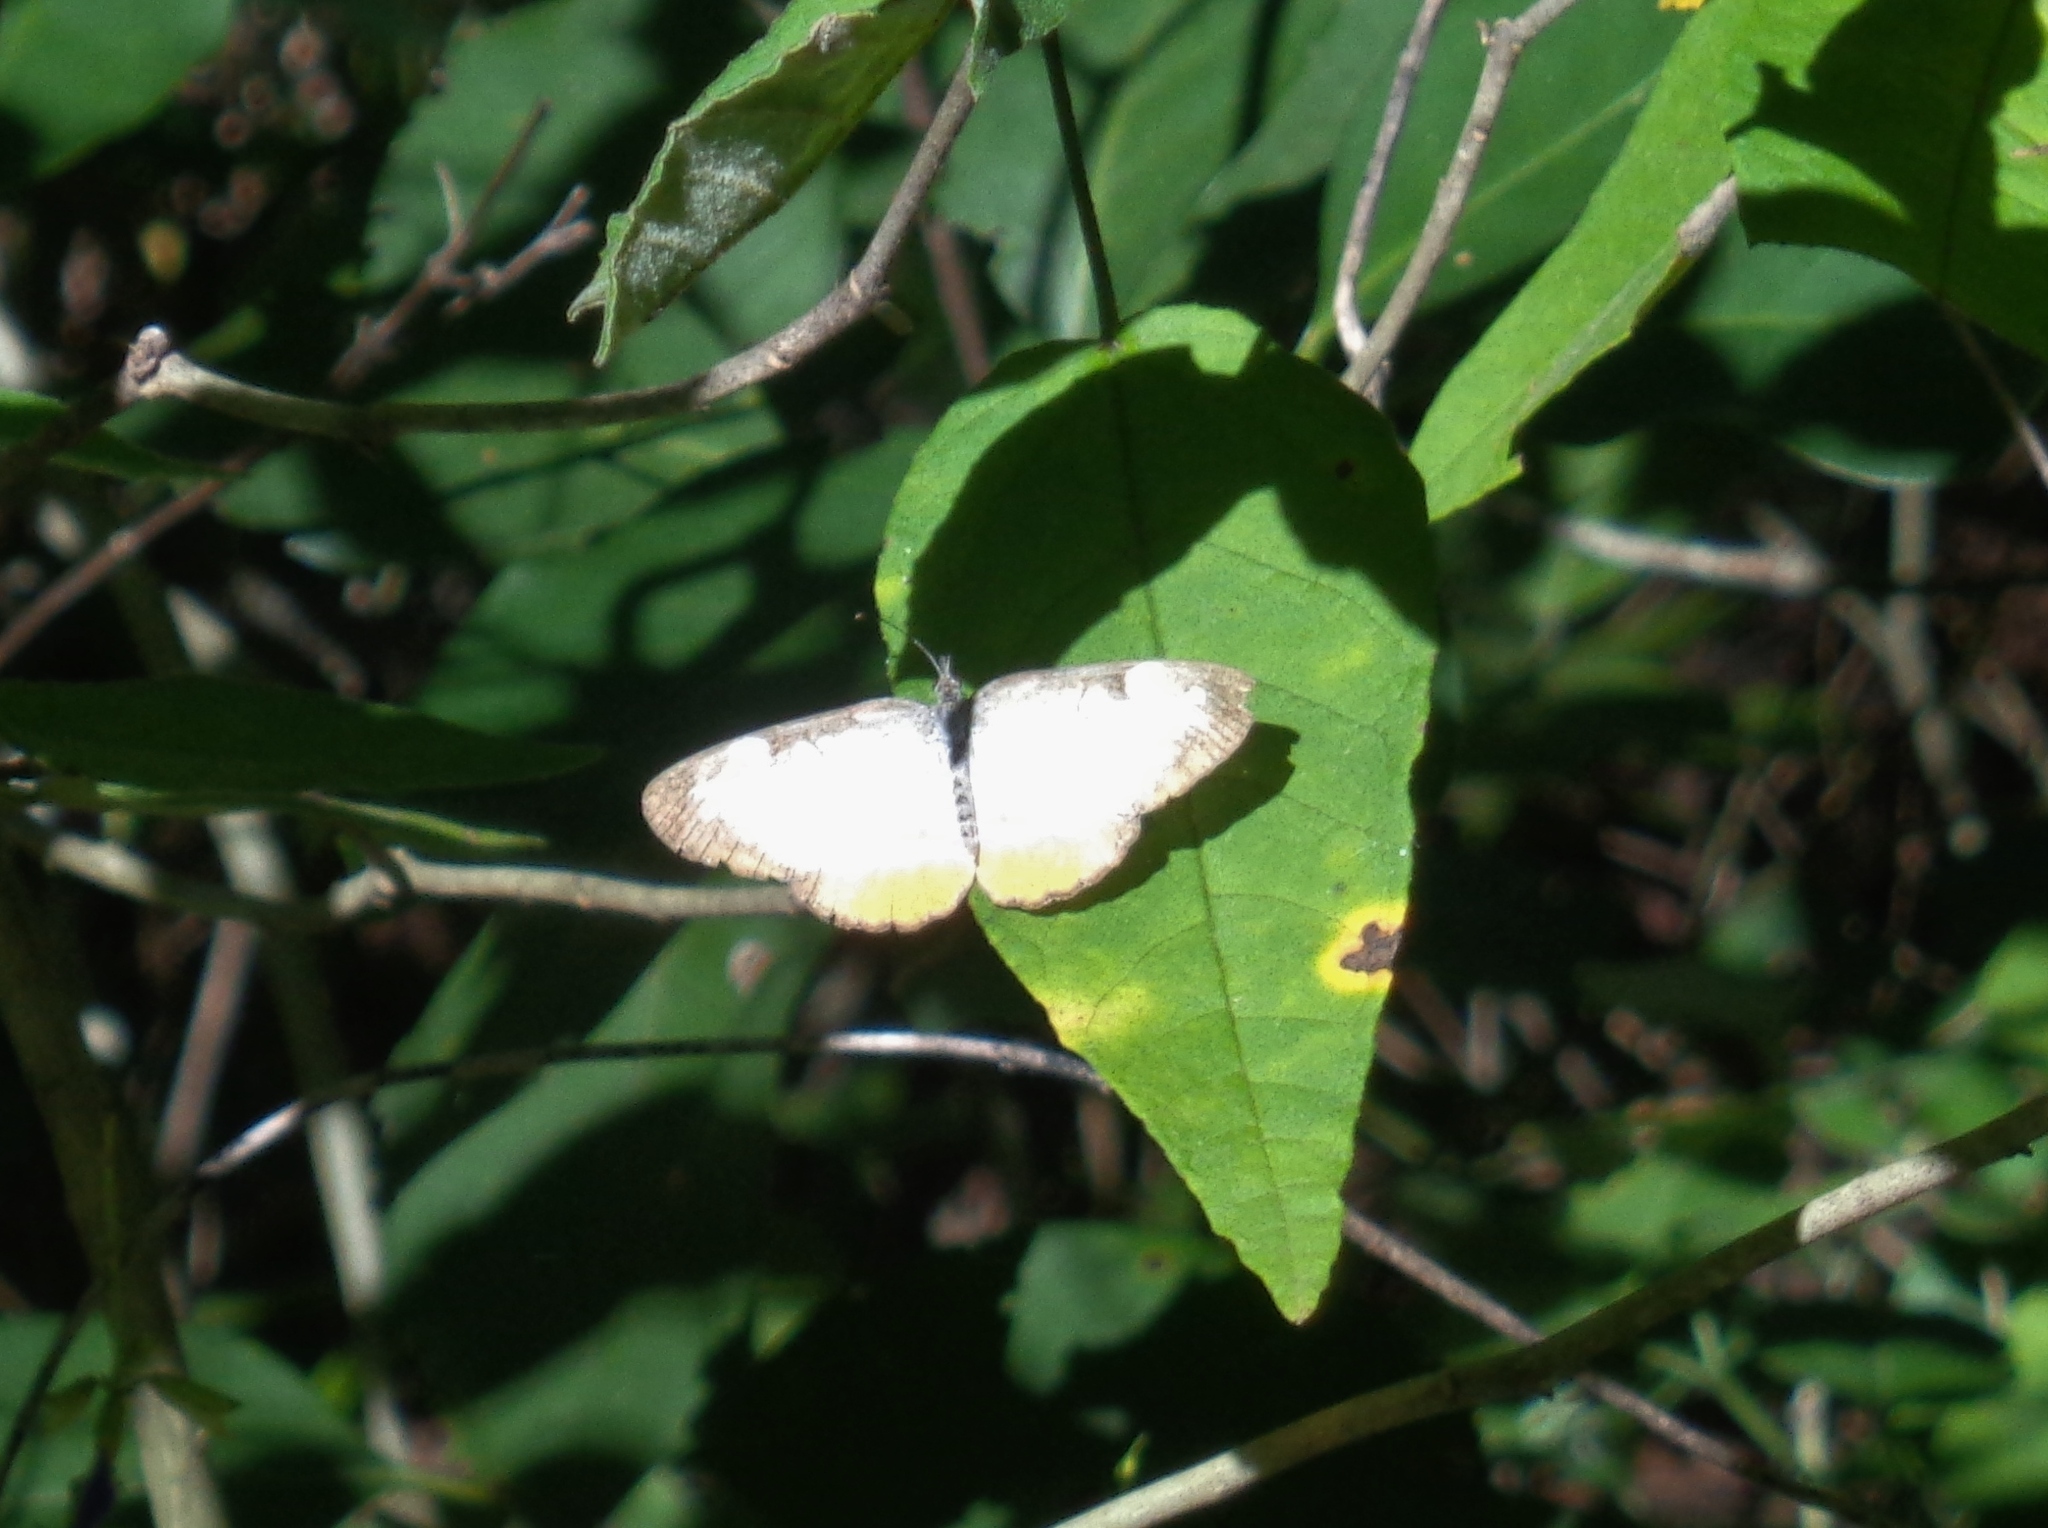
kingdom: Animalia
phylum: Arthropoda
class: Insecta
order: Lepidoptera
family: Nymphalidae
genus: Mestra
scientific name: Mestra amymone
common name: Common mestra
